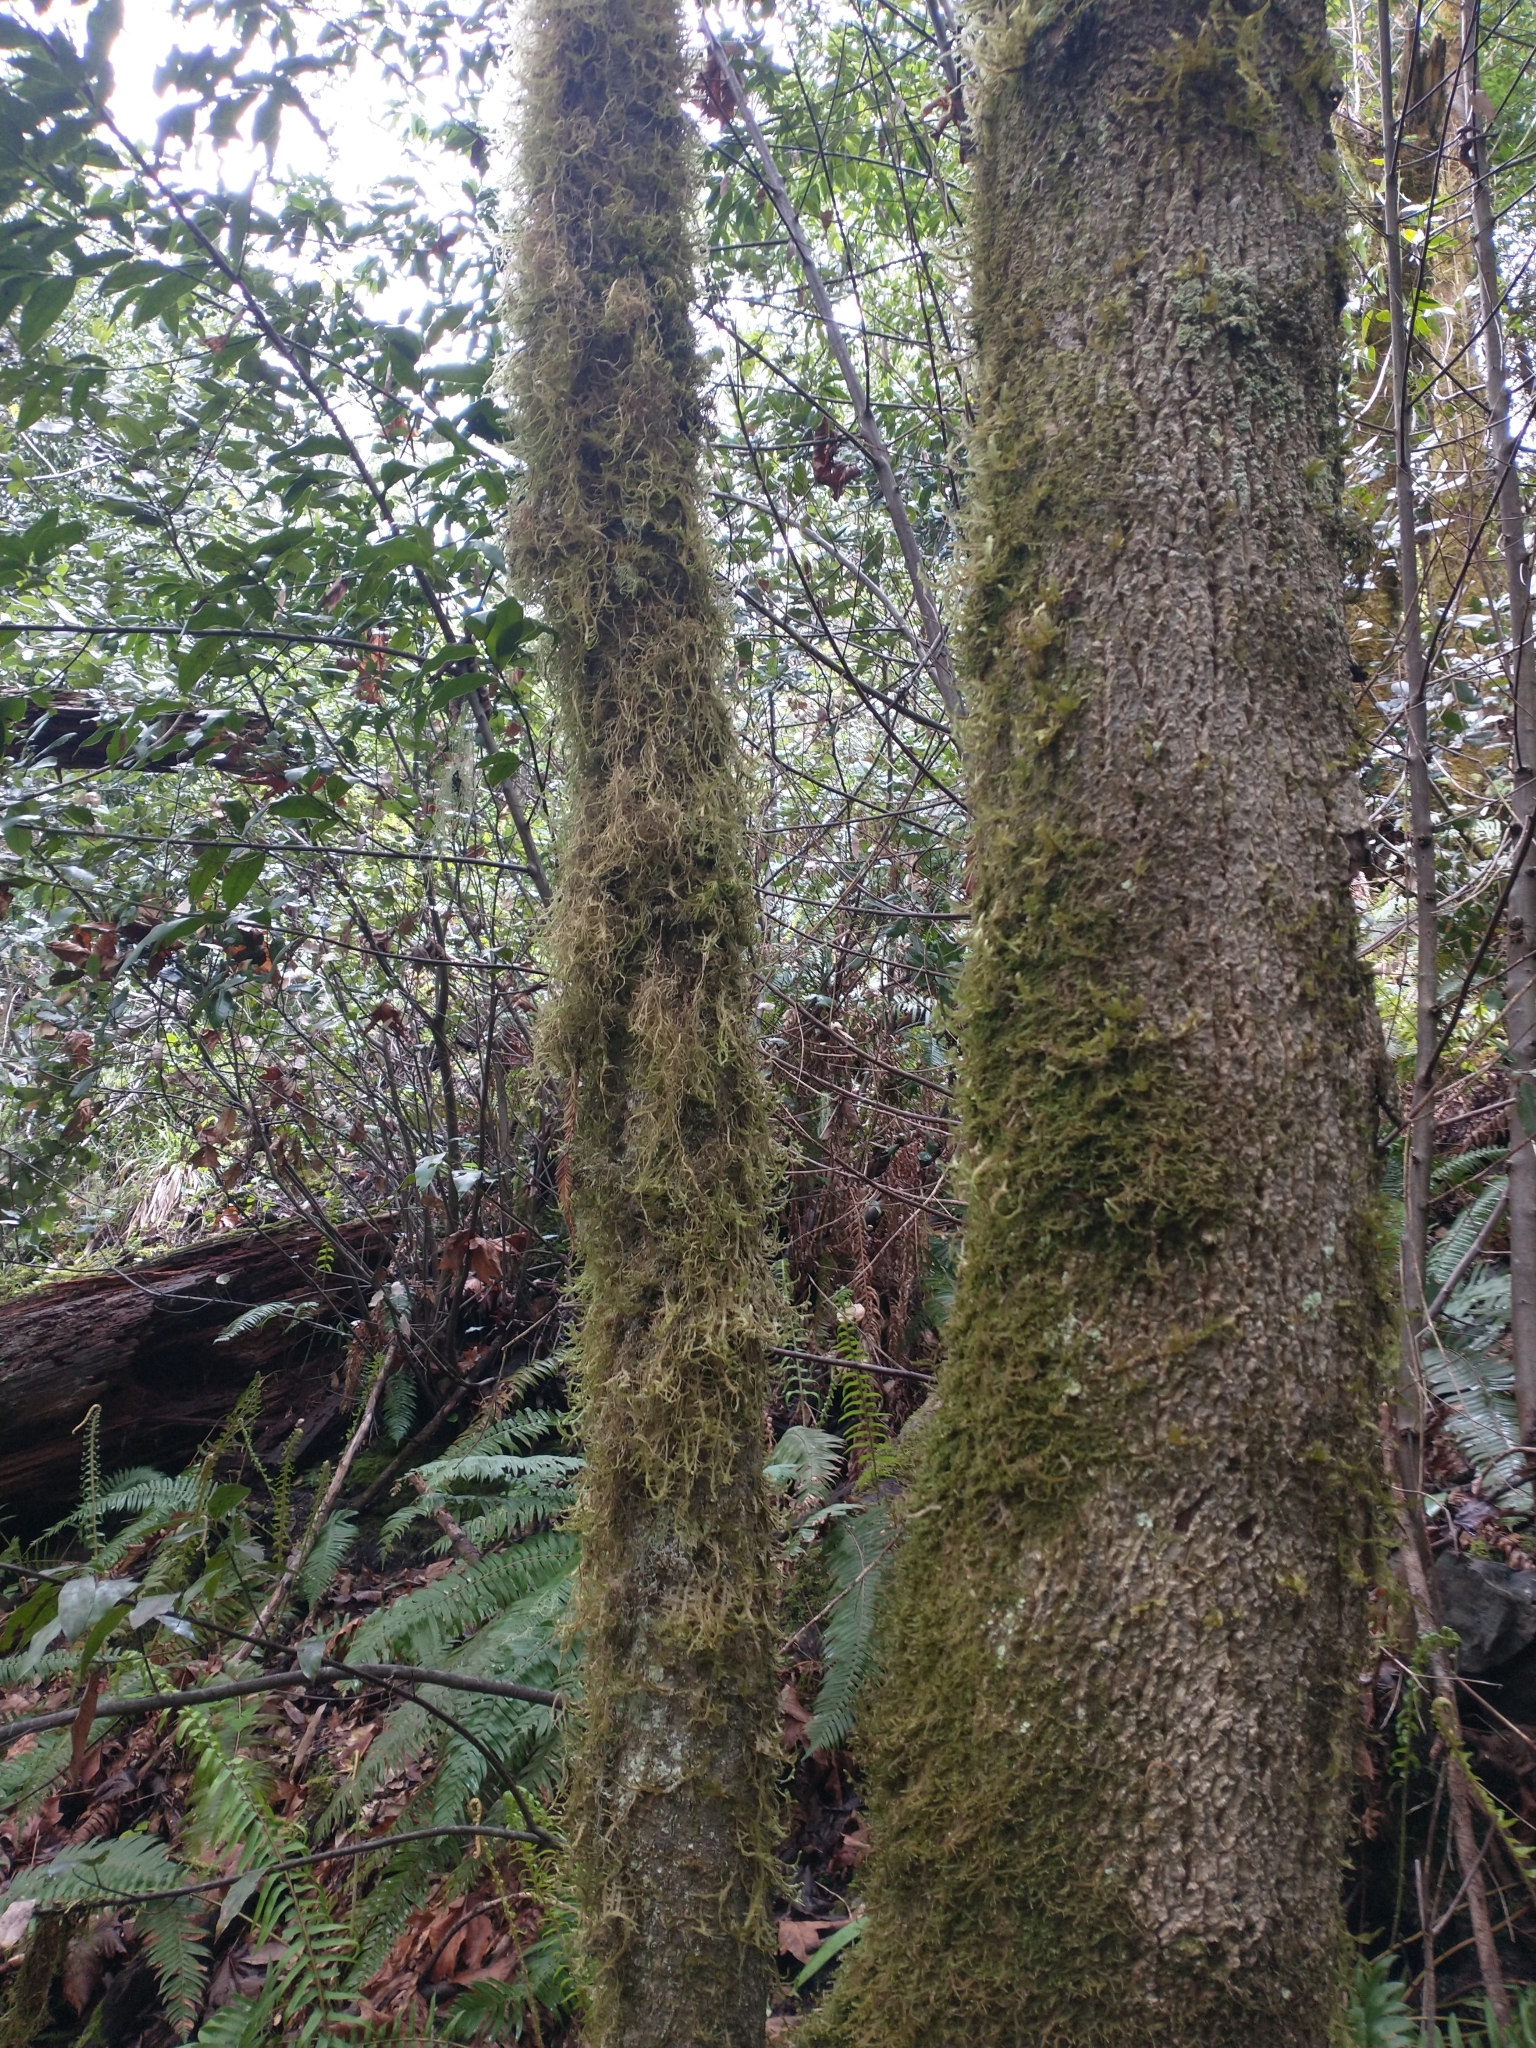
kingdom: Plantae
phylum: Tracheophyta
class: Magnoliopsida
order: Laurales
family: Lauraceae
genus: Umbellularia
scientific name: Umbellularia californica
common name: California bay
